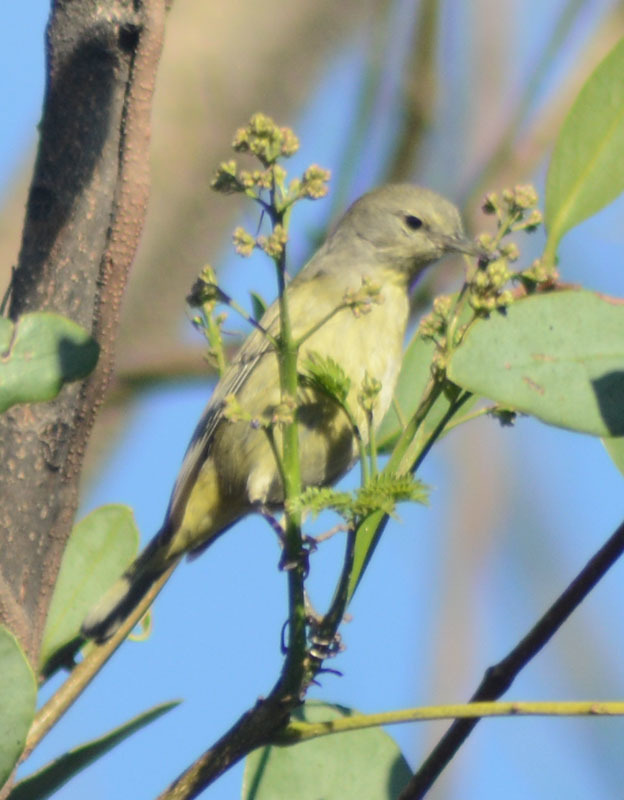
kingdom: Animalia
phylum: Chordata
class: Aves
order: Passeriformes
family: Parulidae
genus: Leiothlypis
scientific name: Leiothlypis celata
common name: Orange-crowned warbler
